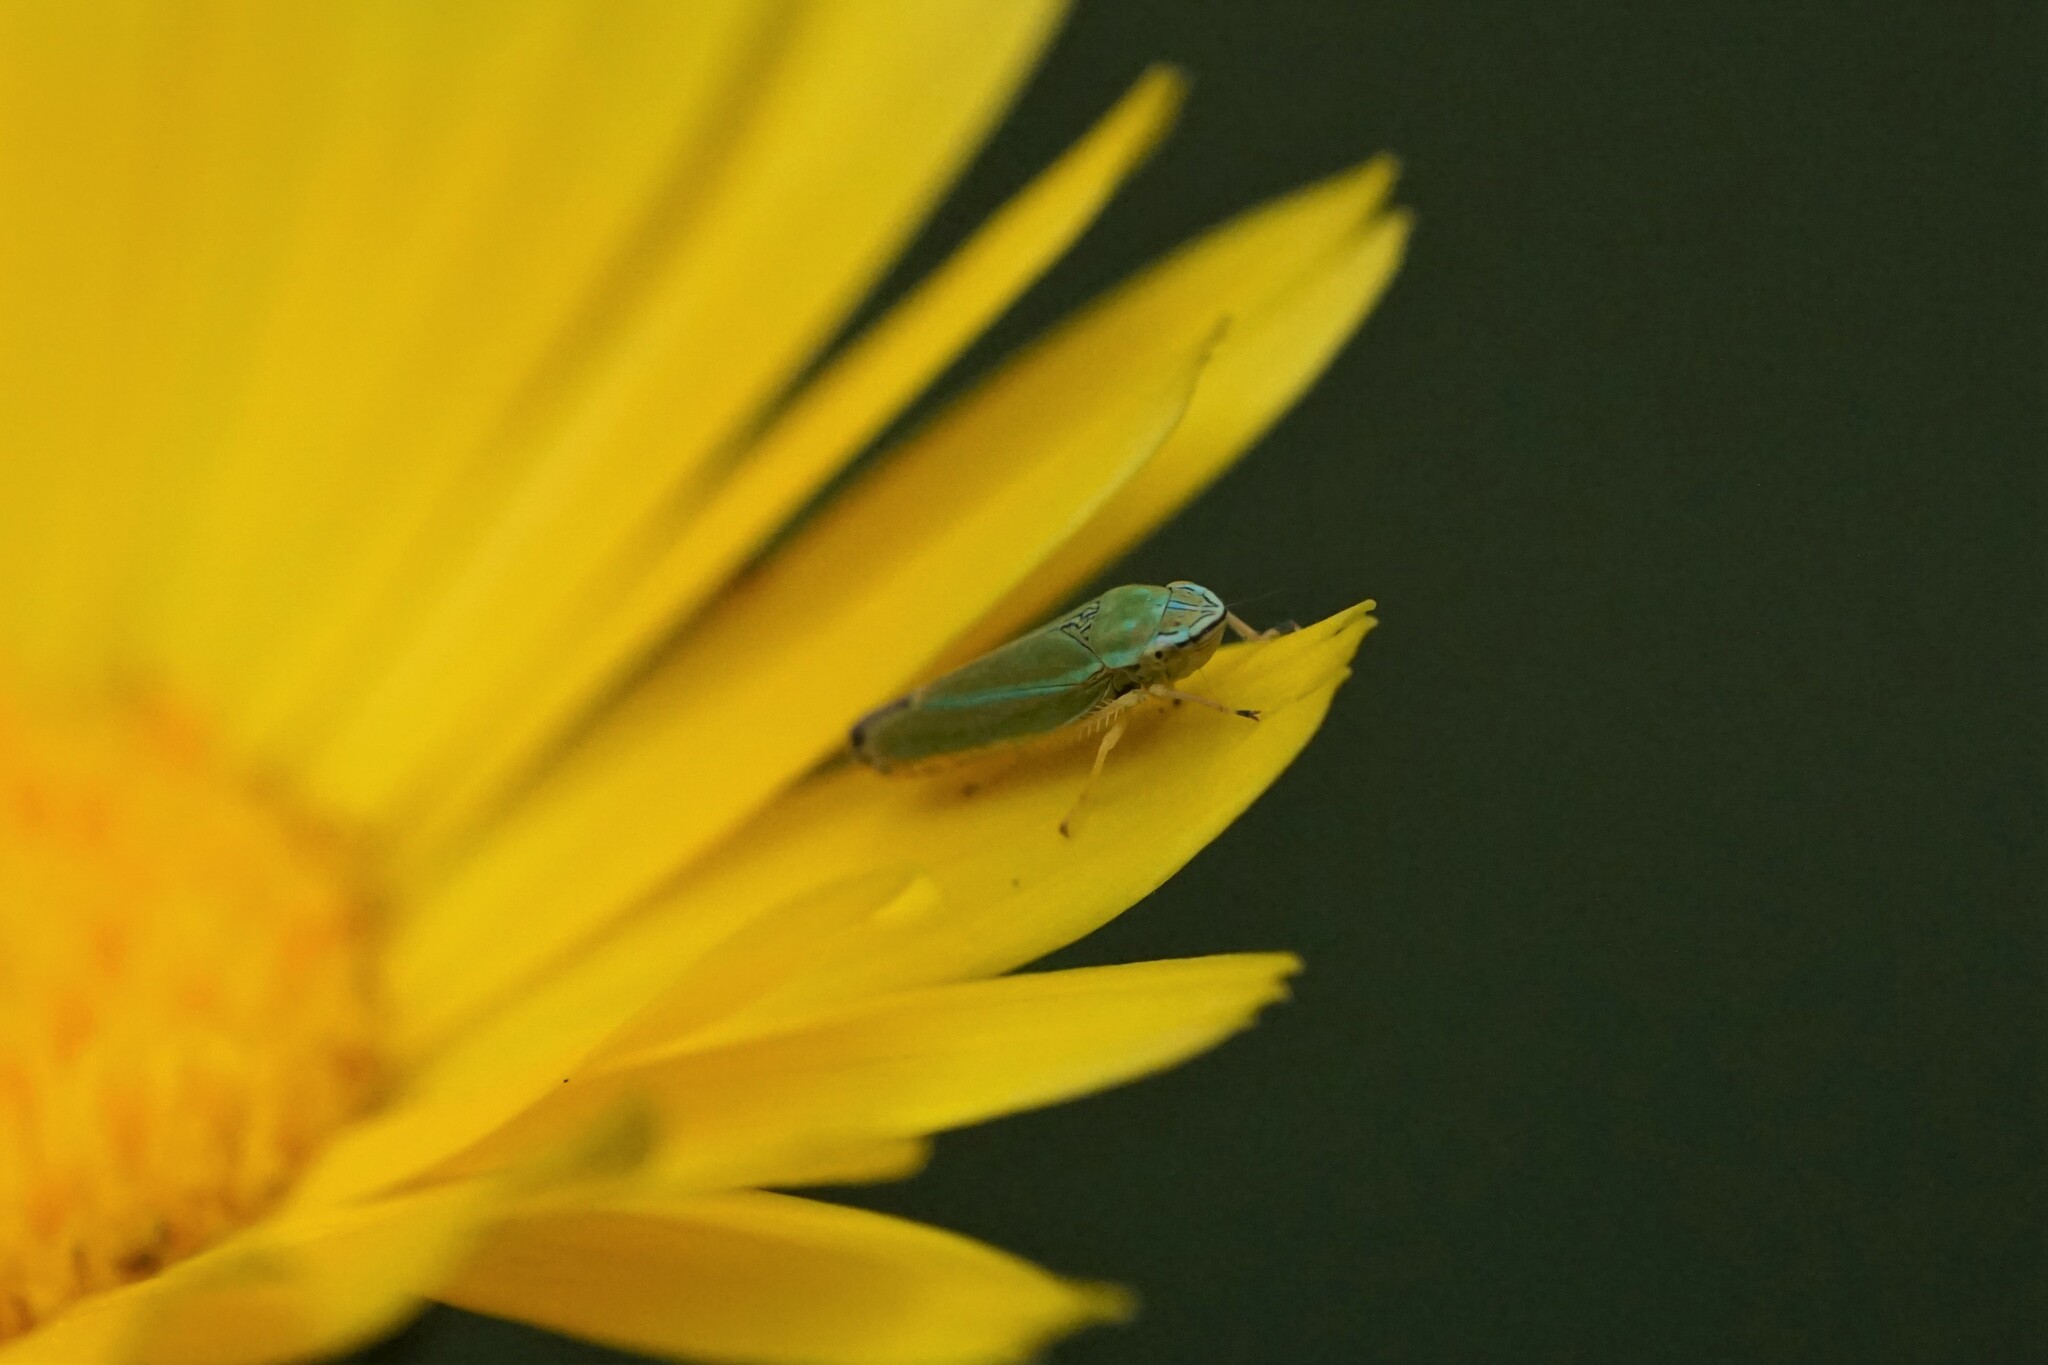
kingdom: Animalia
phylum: Arthropoda
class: Insecta
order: Hemiptera
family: Cicadellidae
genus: Graphocephala
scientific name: Graphocephala versuta
